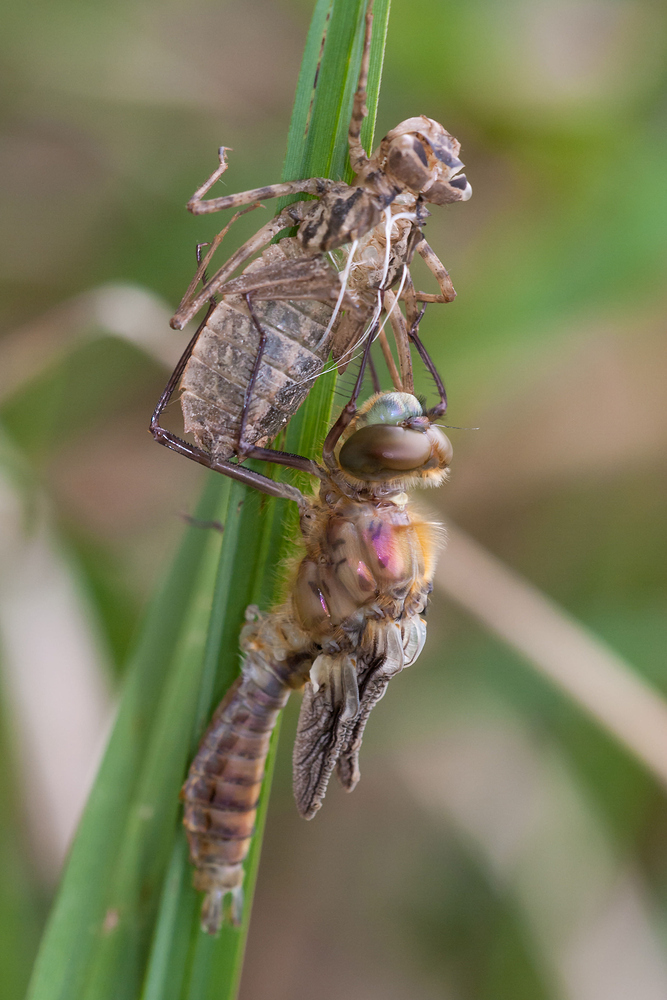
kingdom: Animalia
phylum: Arthropoda
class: Insecta
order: Odonata
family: Corduliidae
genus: Cordulia
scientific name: Cordulia aenea
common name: Downy emerald
